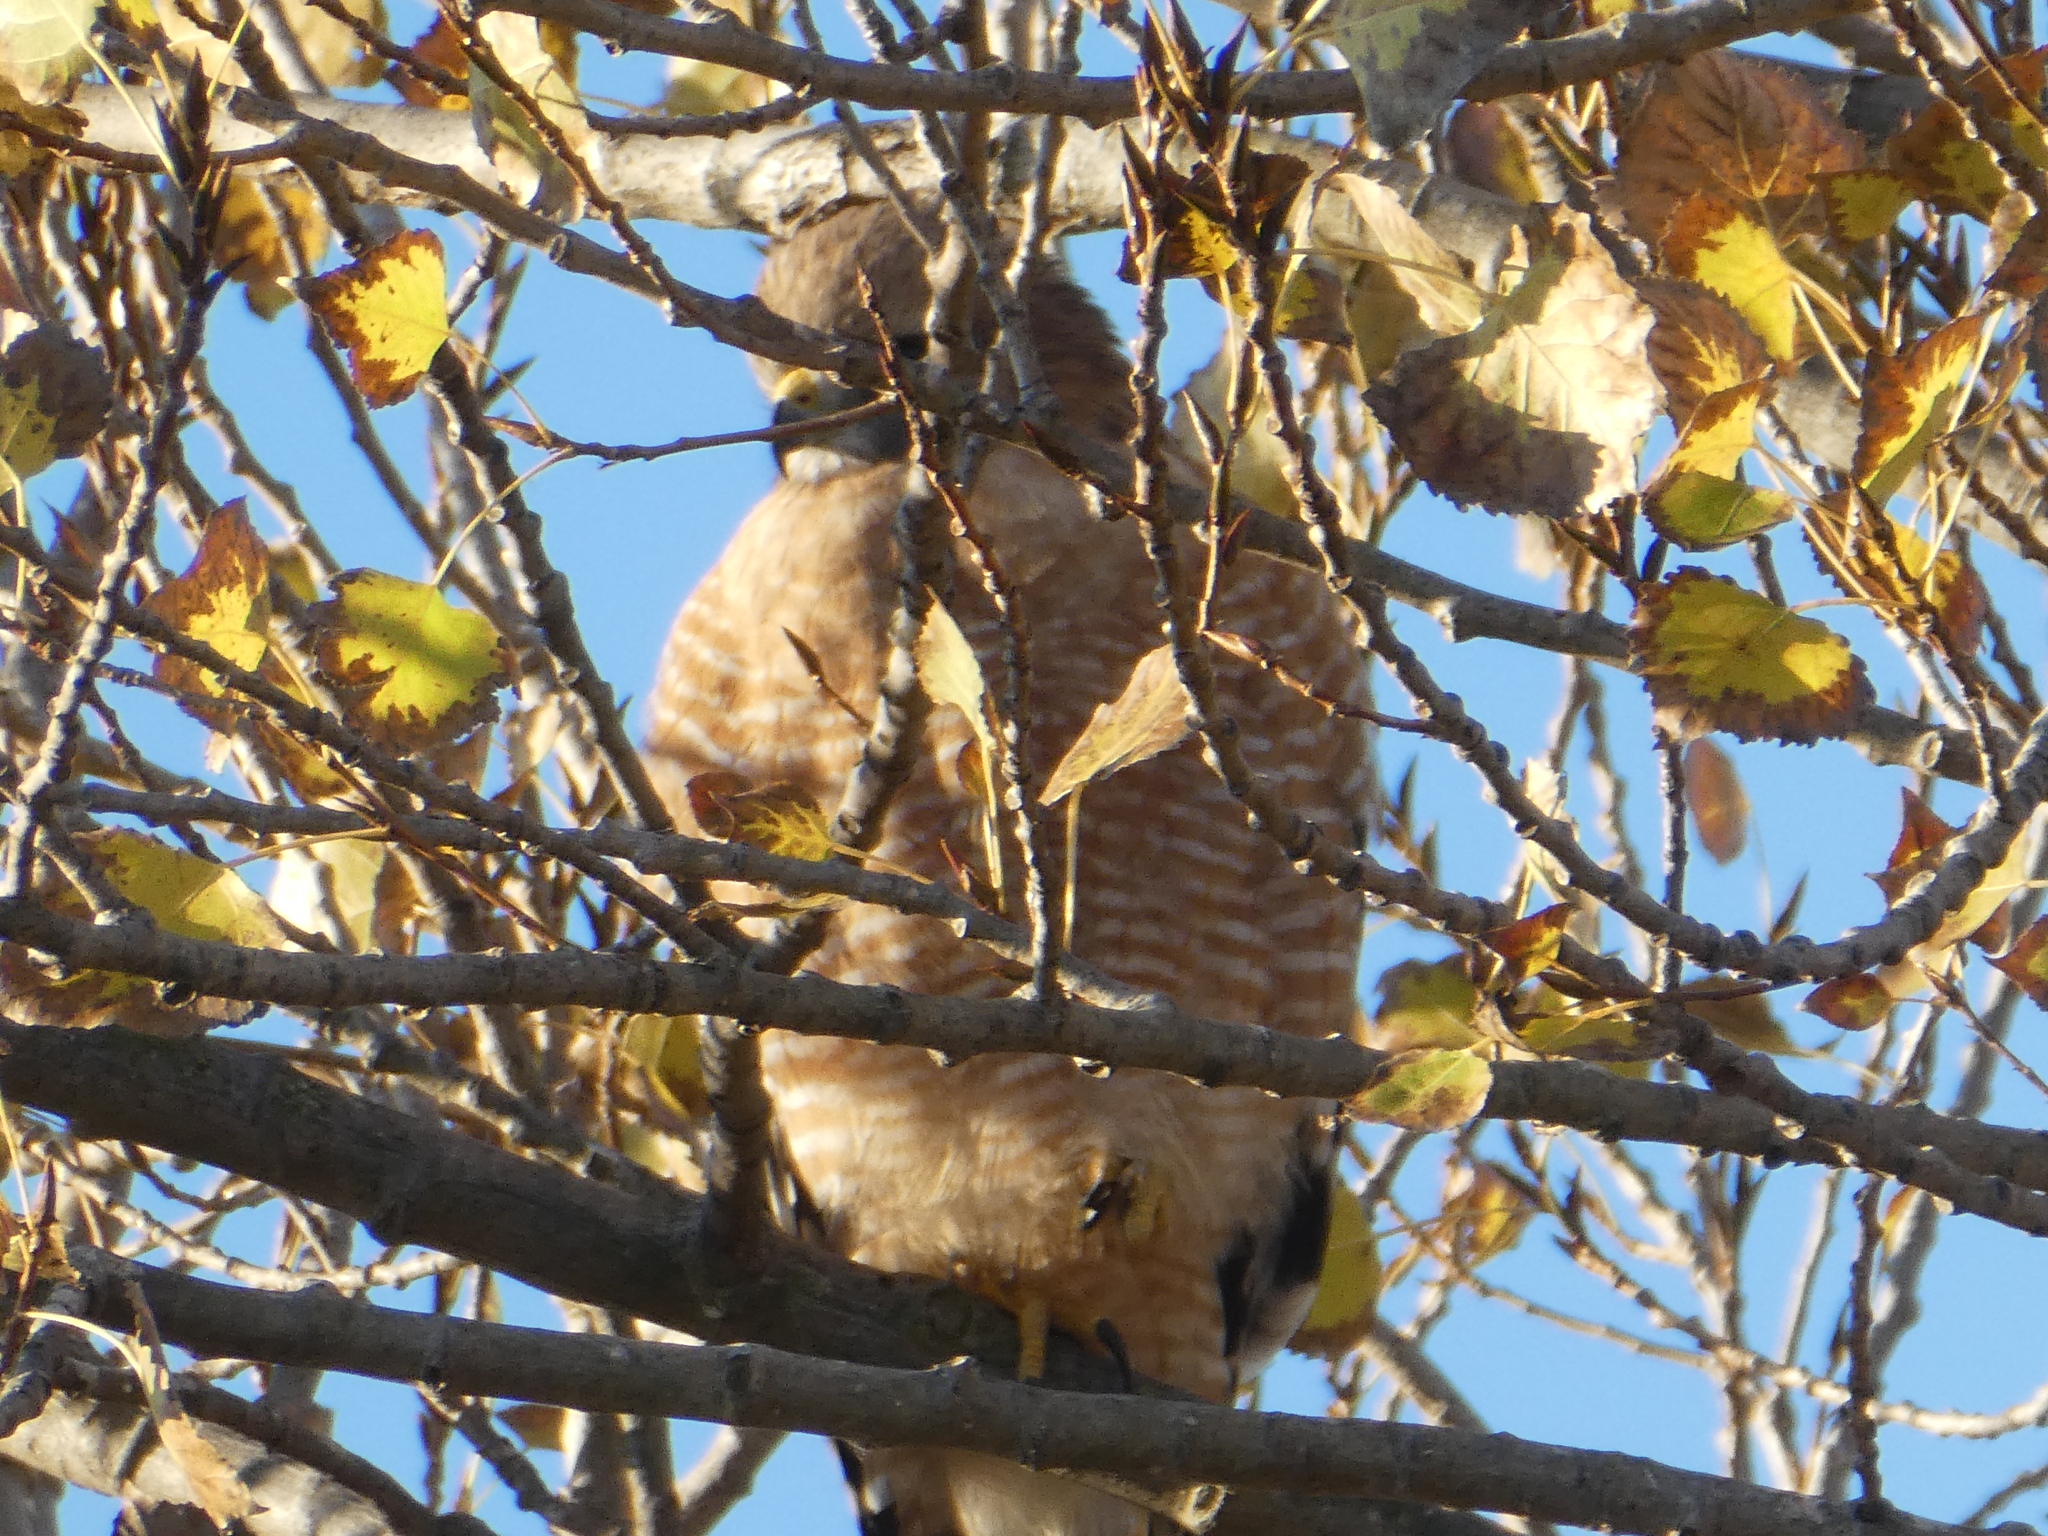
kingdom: Animalia
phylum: Chordata
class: Aves
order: Accipitriformes
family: Accipitridae
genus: Buteo
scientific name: Buteo lineatus
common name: Red-shouldered hawk
